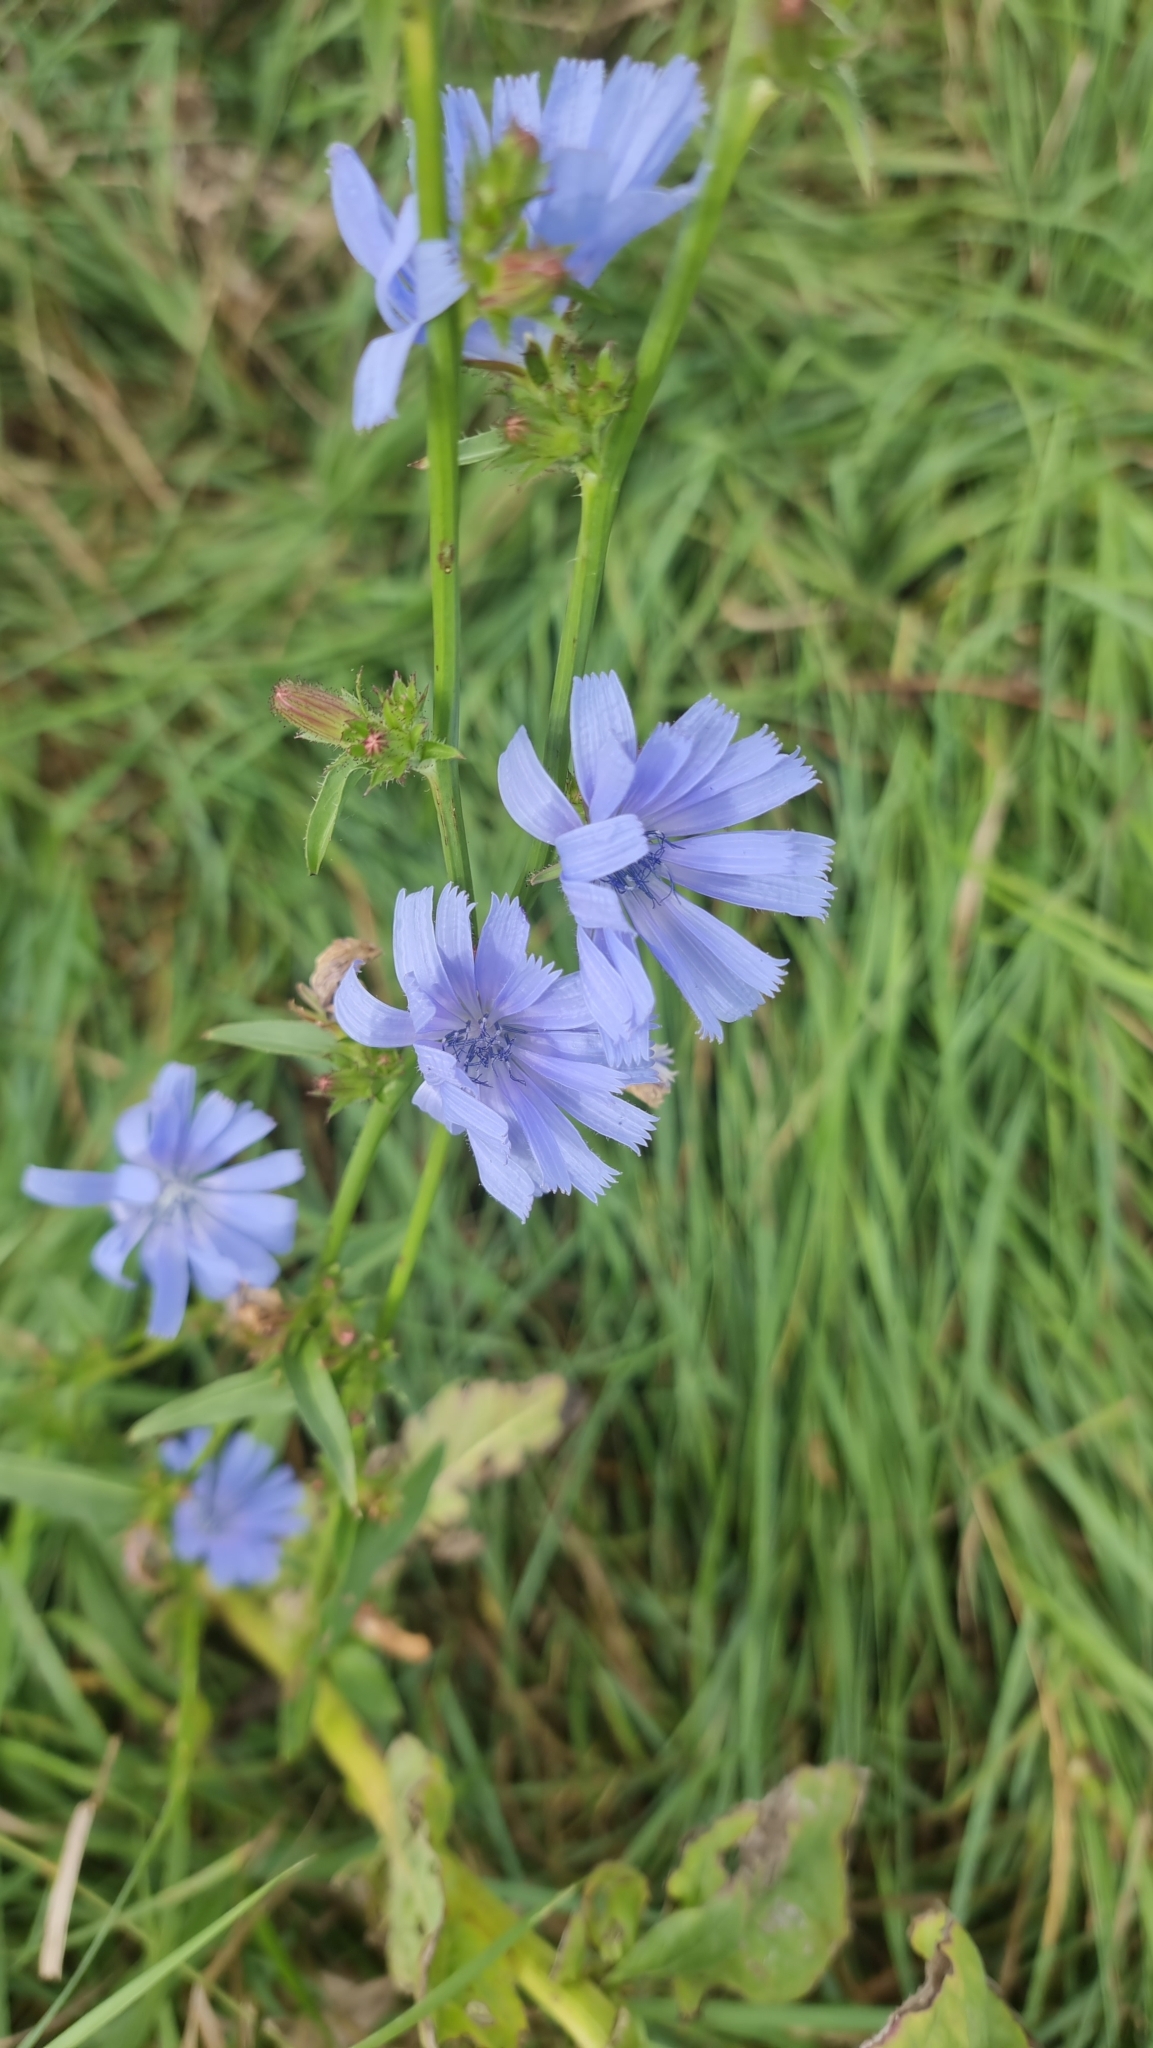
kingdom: Plantae
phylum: Tracheophyta
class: Magnoliopsida
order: Asterales
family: Asteraceae
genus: Cichorium
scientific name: Cichorium intybus
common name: Chicory
